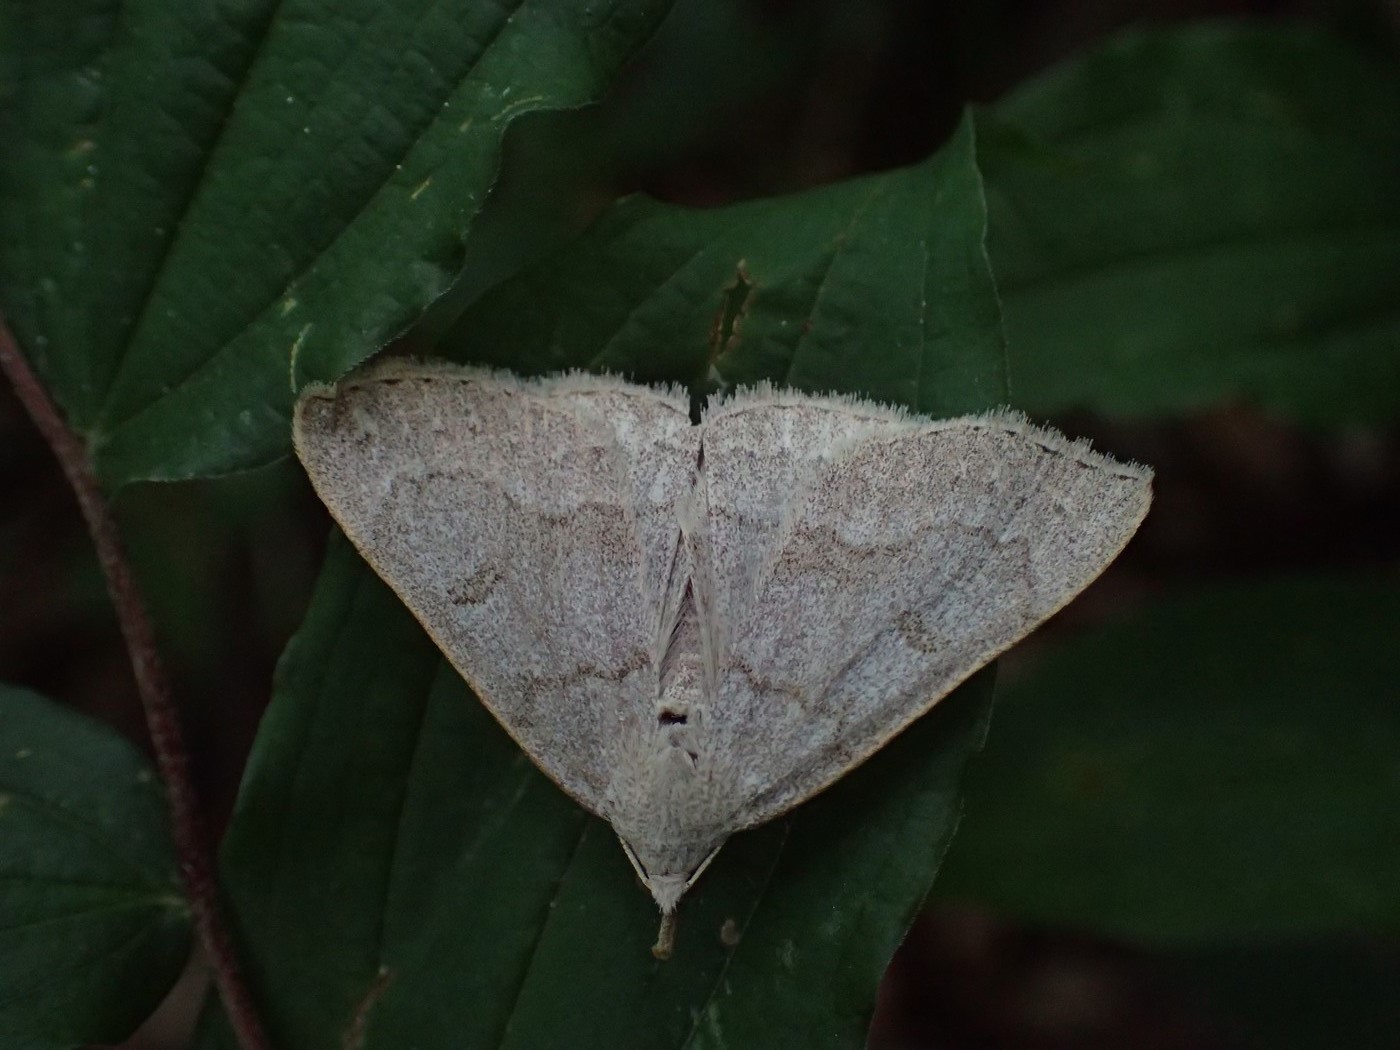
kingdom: Animalia
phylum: Arthropoda
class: Insecta
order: Lepidoptera
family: Erebidae
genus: Macrochilo
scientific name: Macrochilo morbidalis
